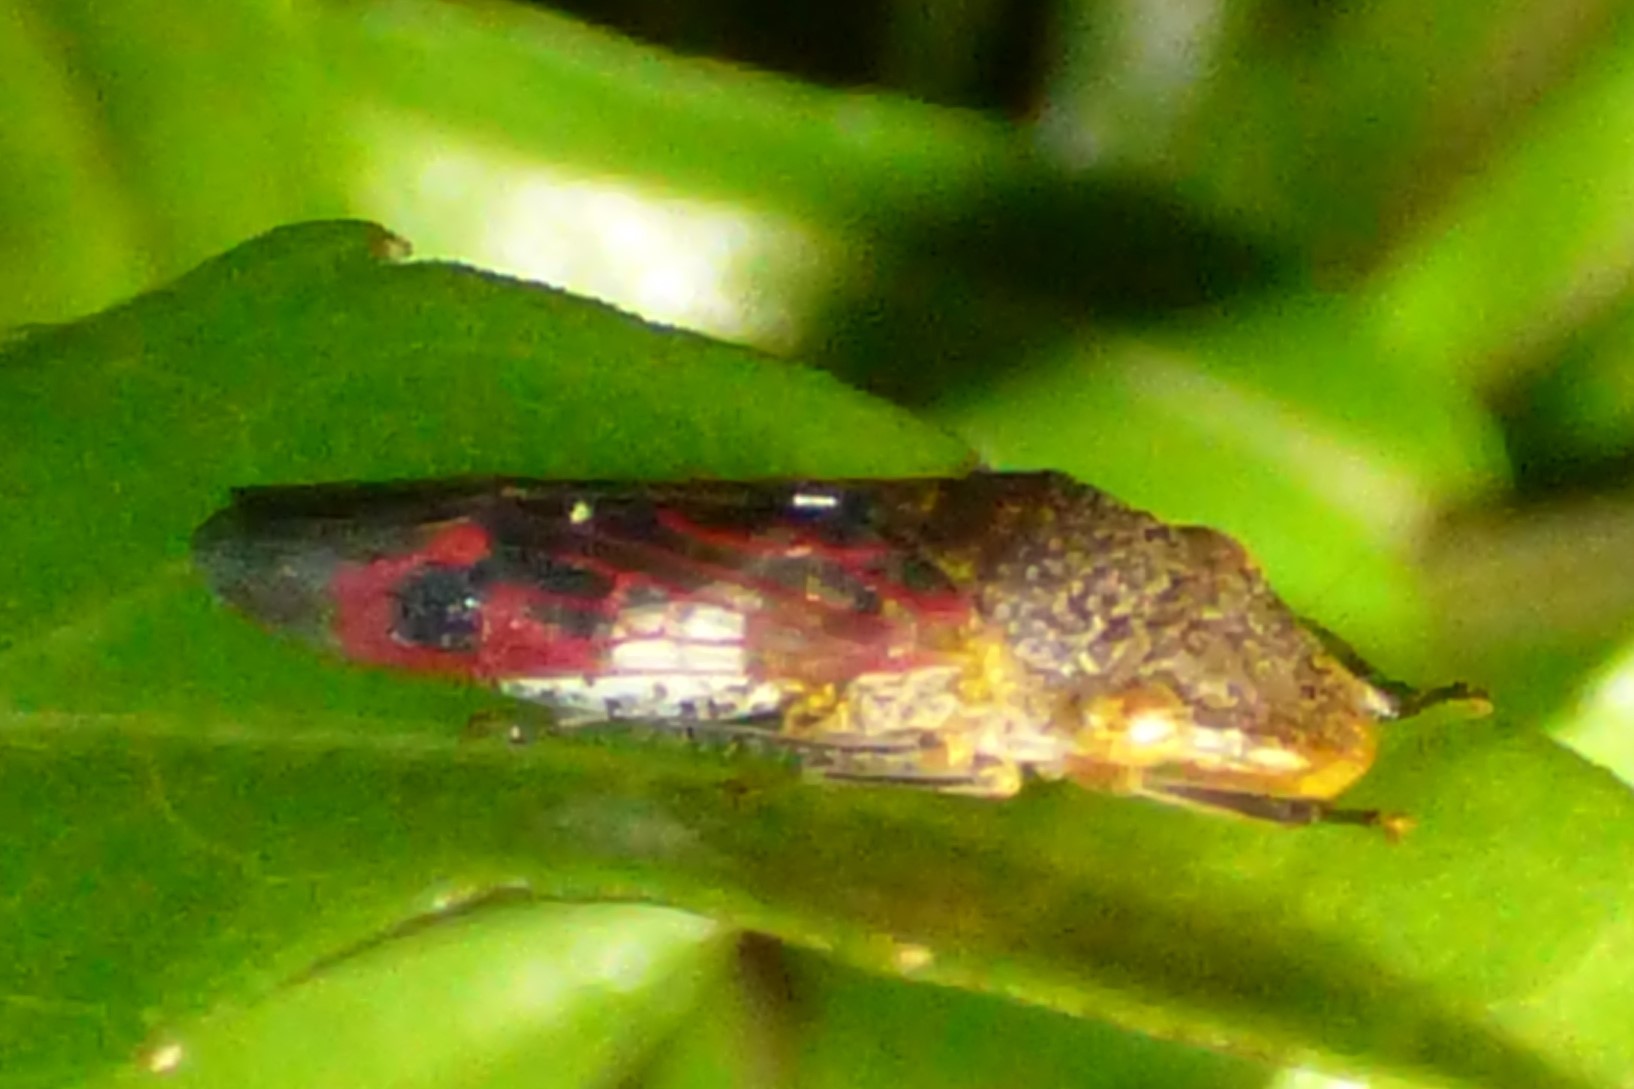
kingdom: Animalia
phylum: Arthropoda
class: Insecta
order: Hemiptera
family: Cicadellidae
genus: Homalodisca
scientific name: Homalodisca vitripennis
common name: Glassy-winged sharpshooter
